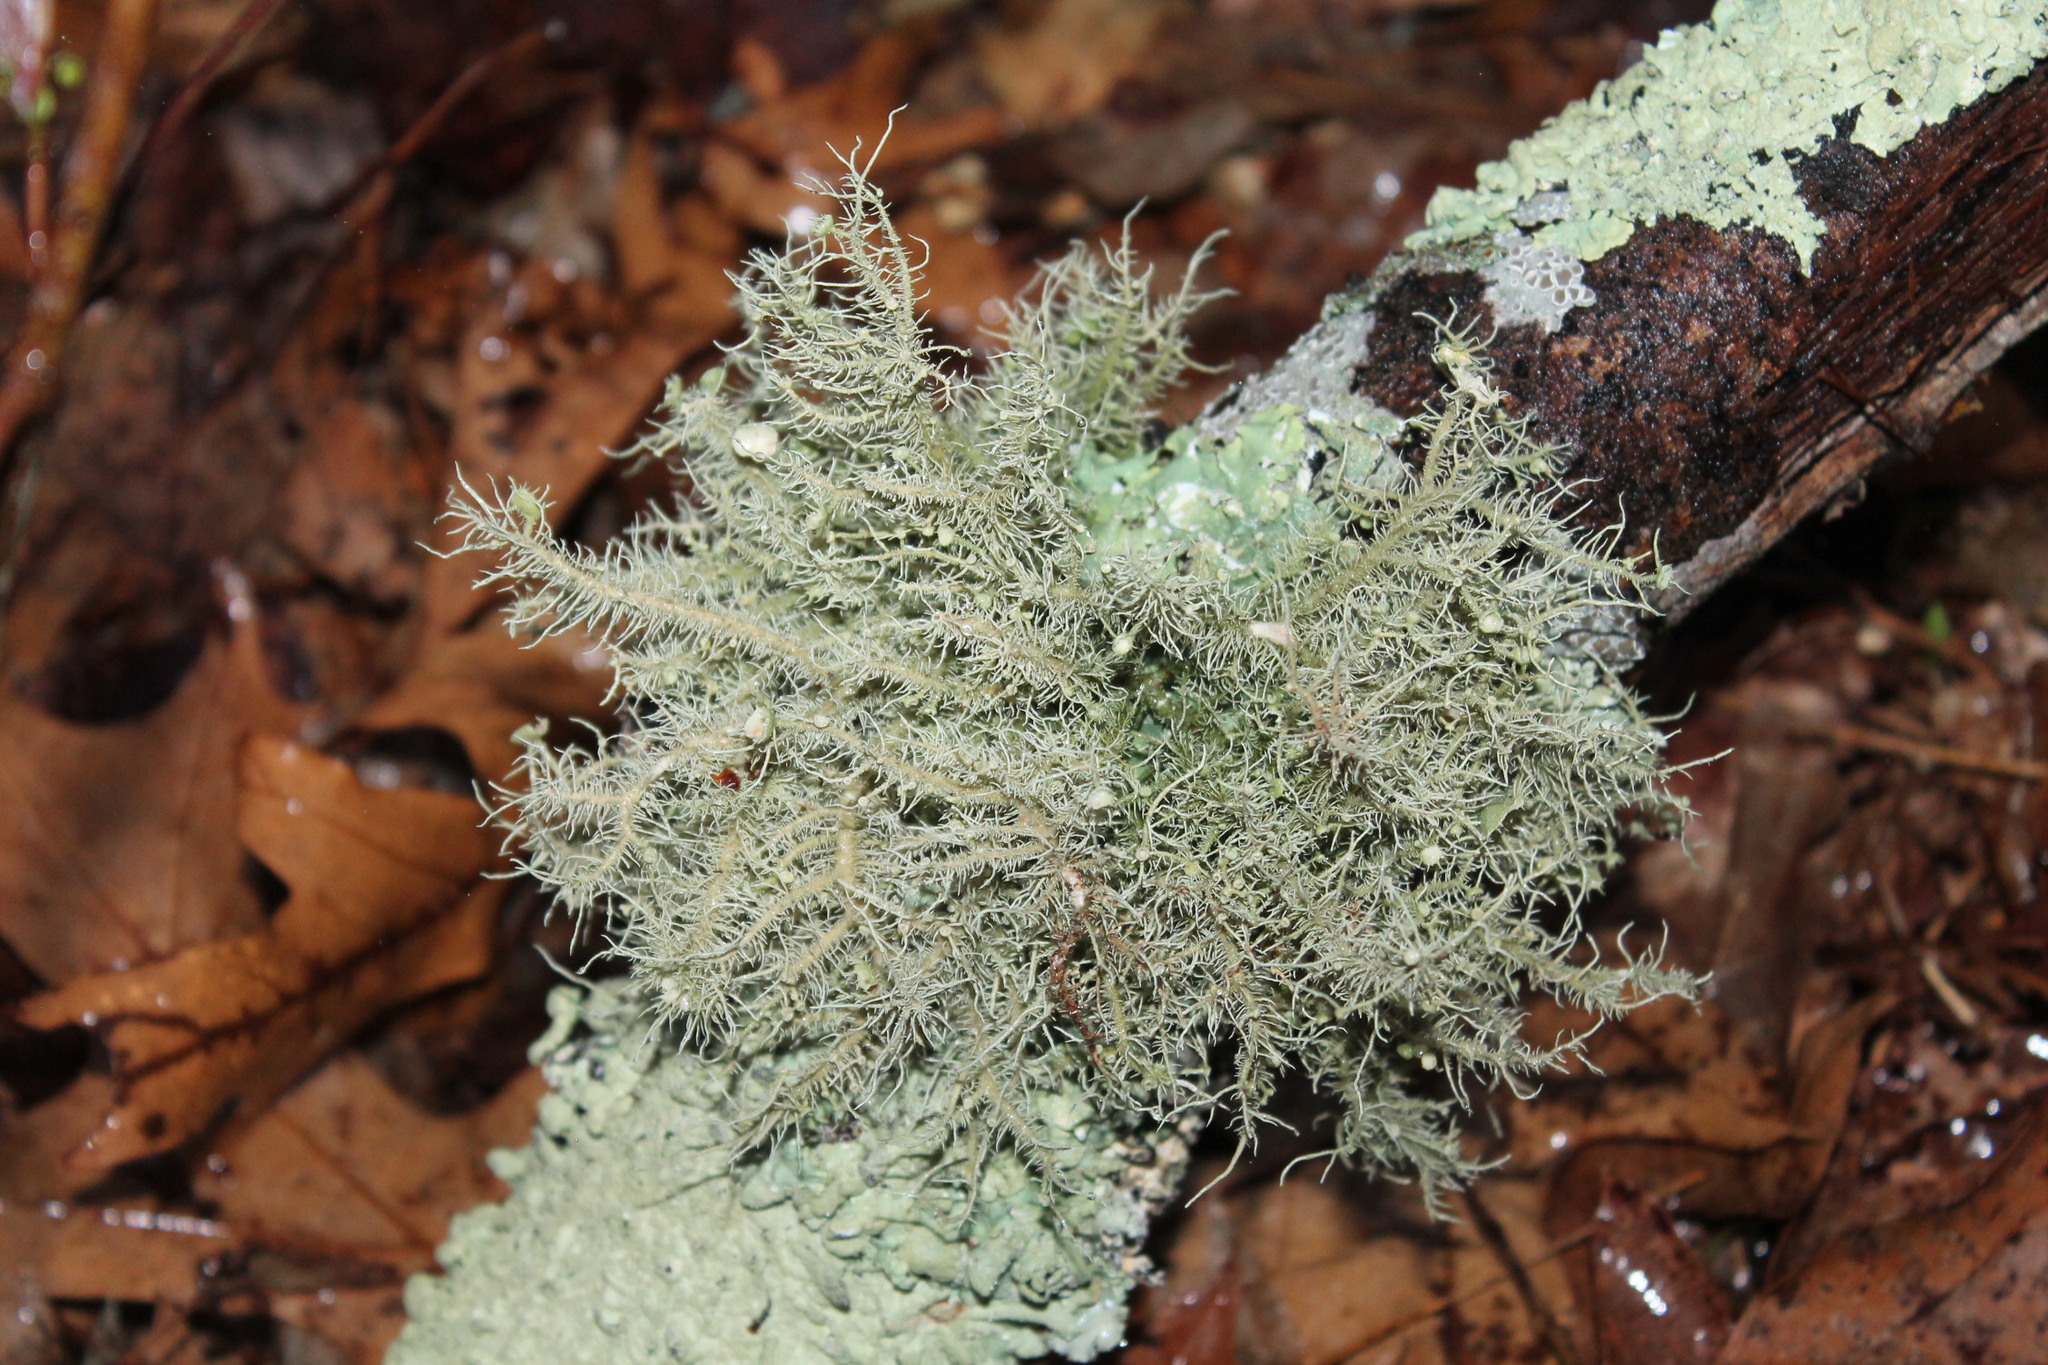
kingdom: Fungi
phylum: Ascomycota
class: Lecanoromycetes
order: Lecanorales
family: Parmeliaceae
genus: Usnea
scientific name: Usnea strigosa
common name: Bushy beard lichen
